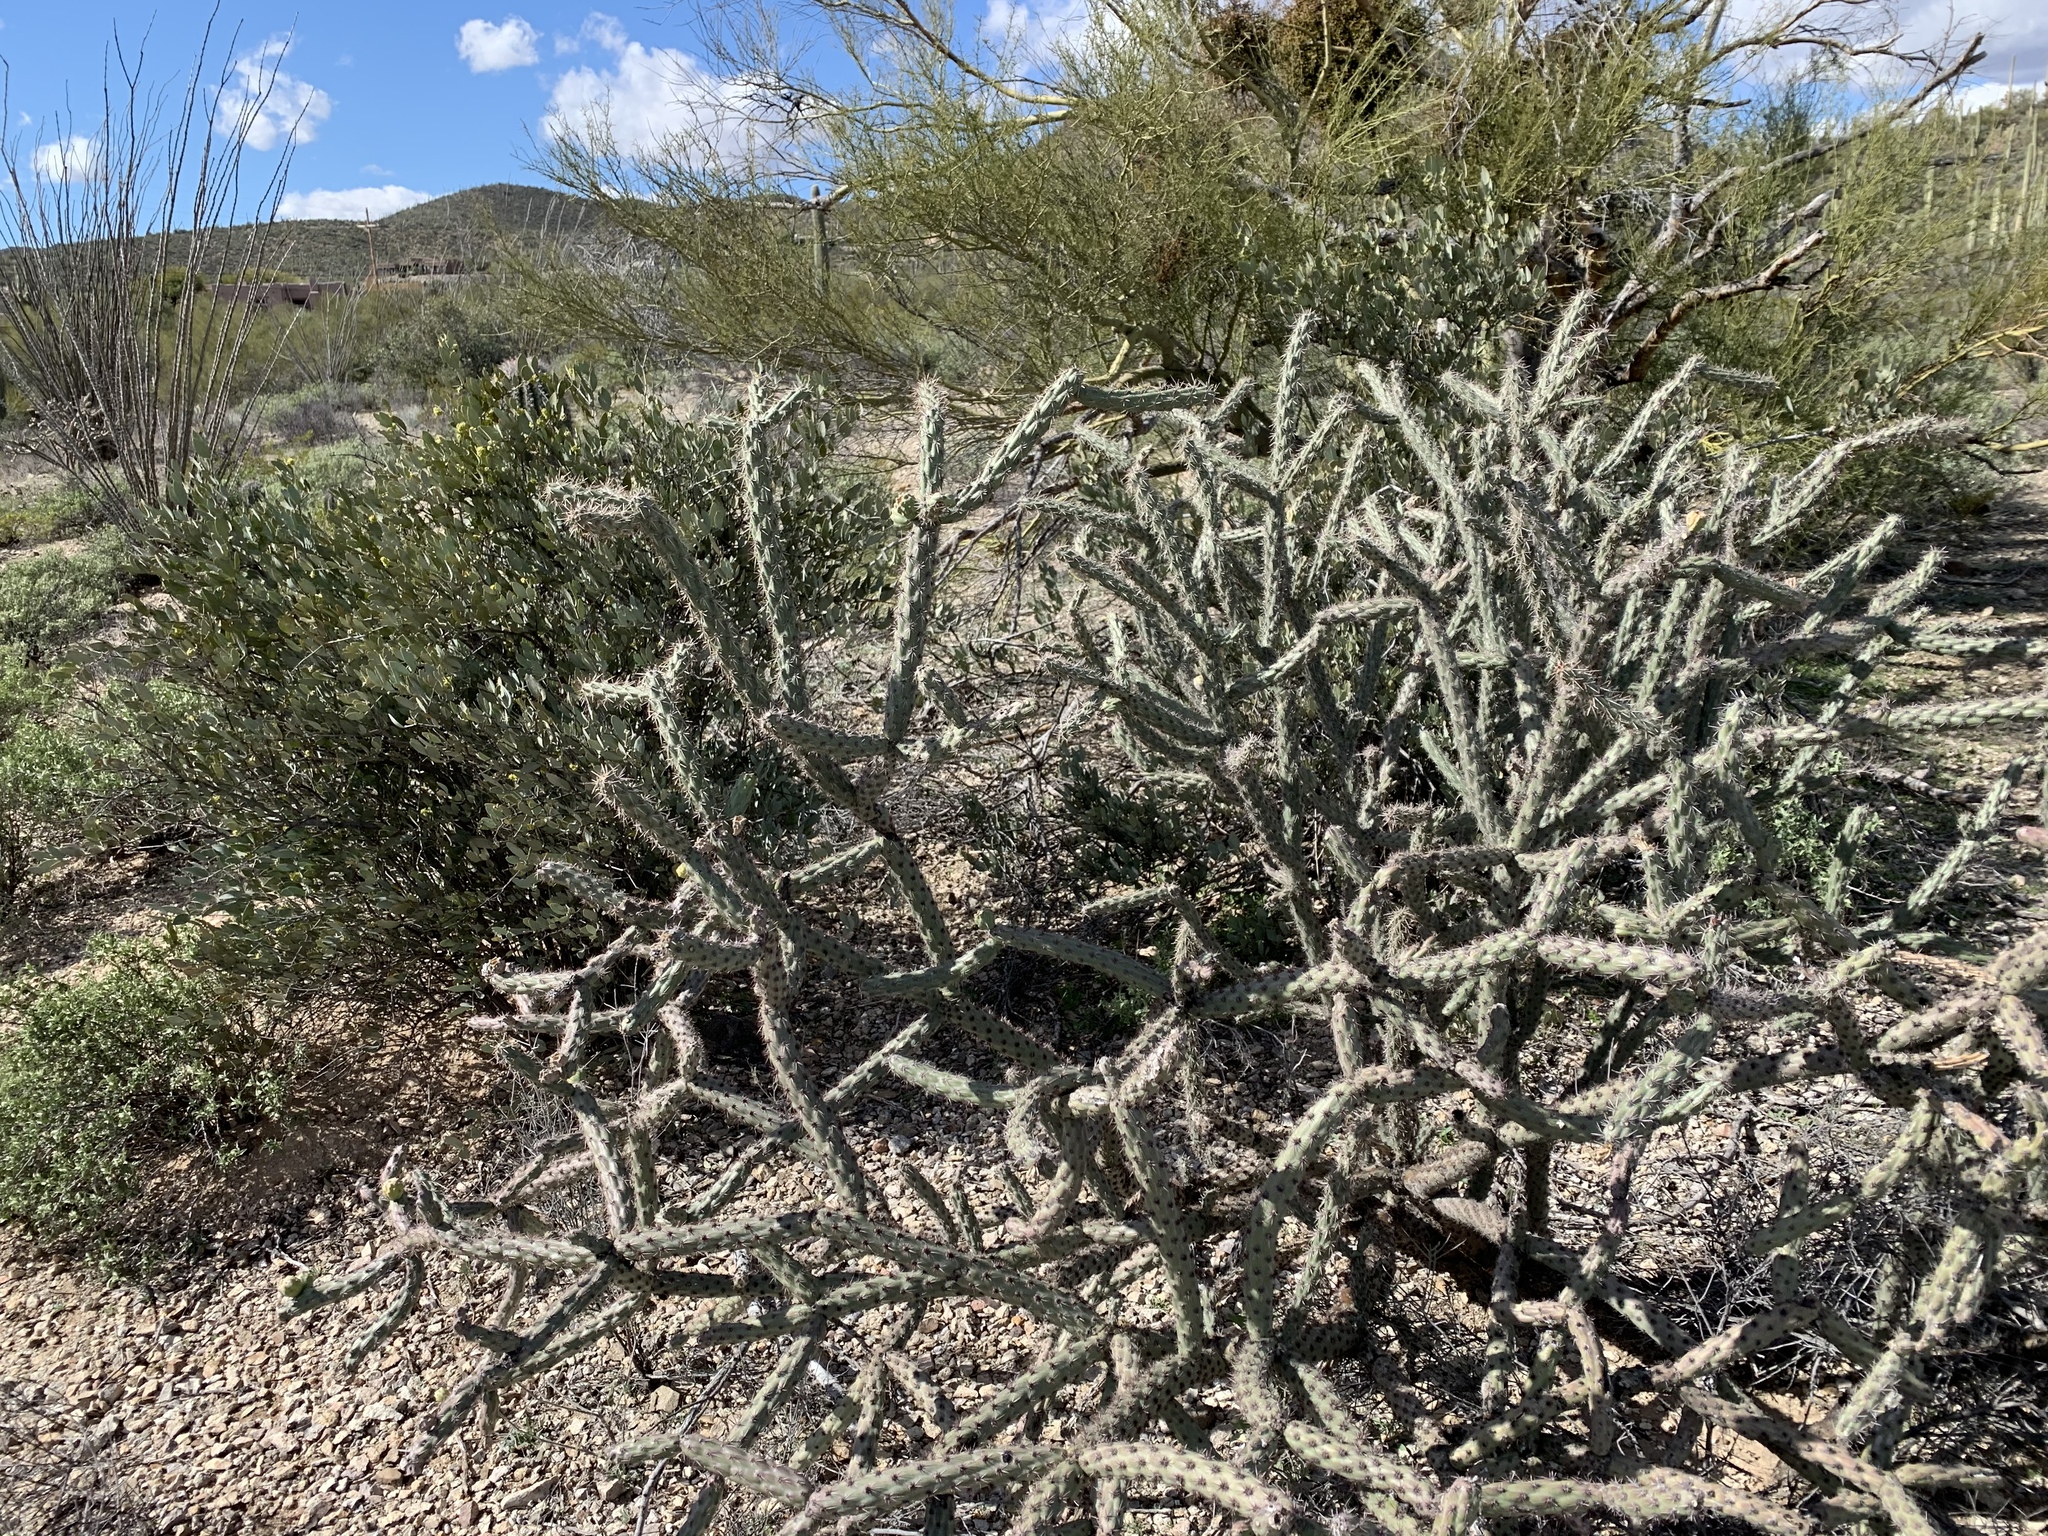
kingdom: Plantae
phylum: Tracheophyta
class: Magnoliopsida
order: Caryophyllales
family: Cactaceae
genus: Cylindropuntia
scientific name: Cylindropuntia thurberi
